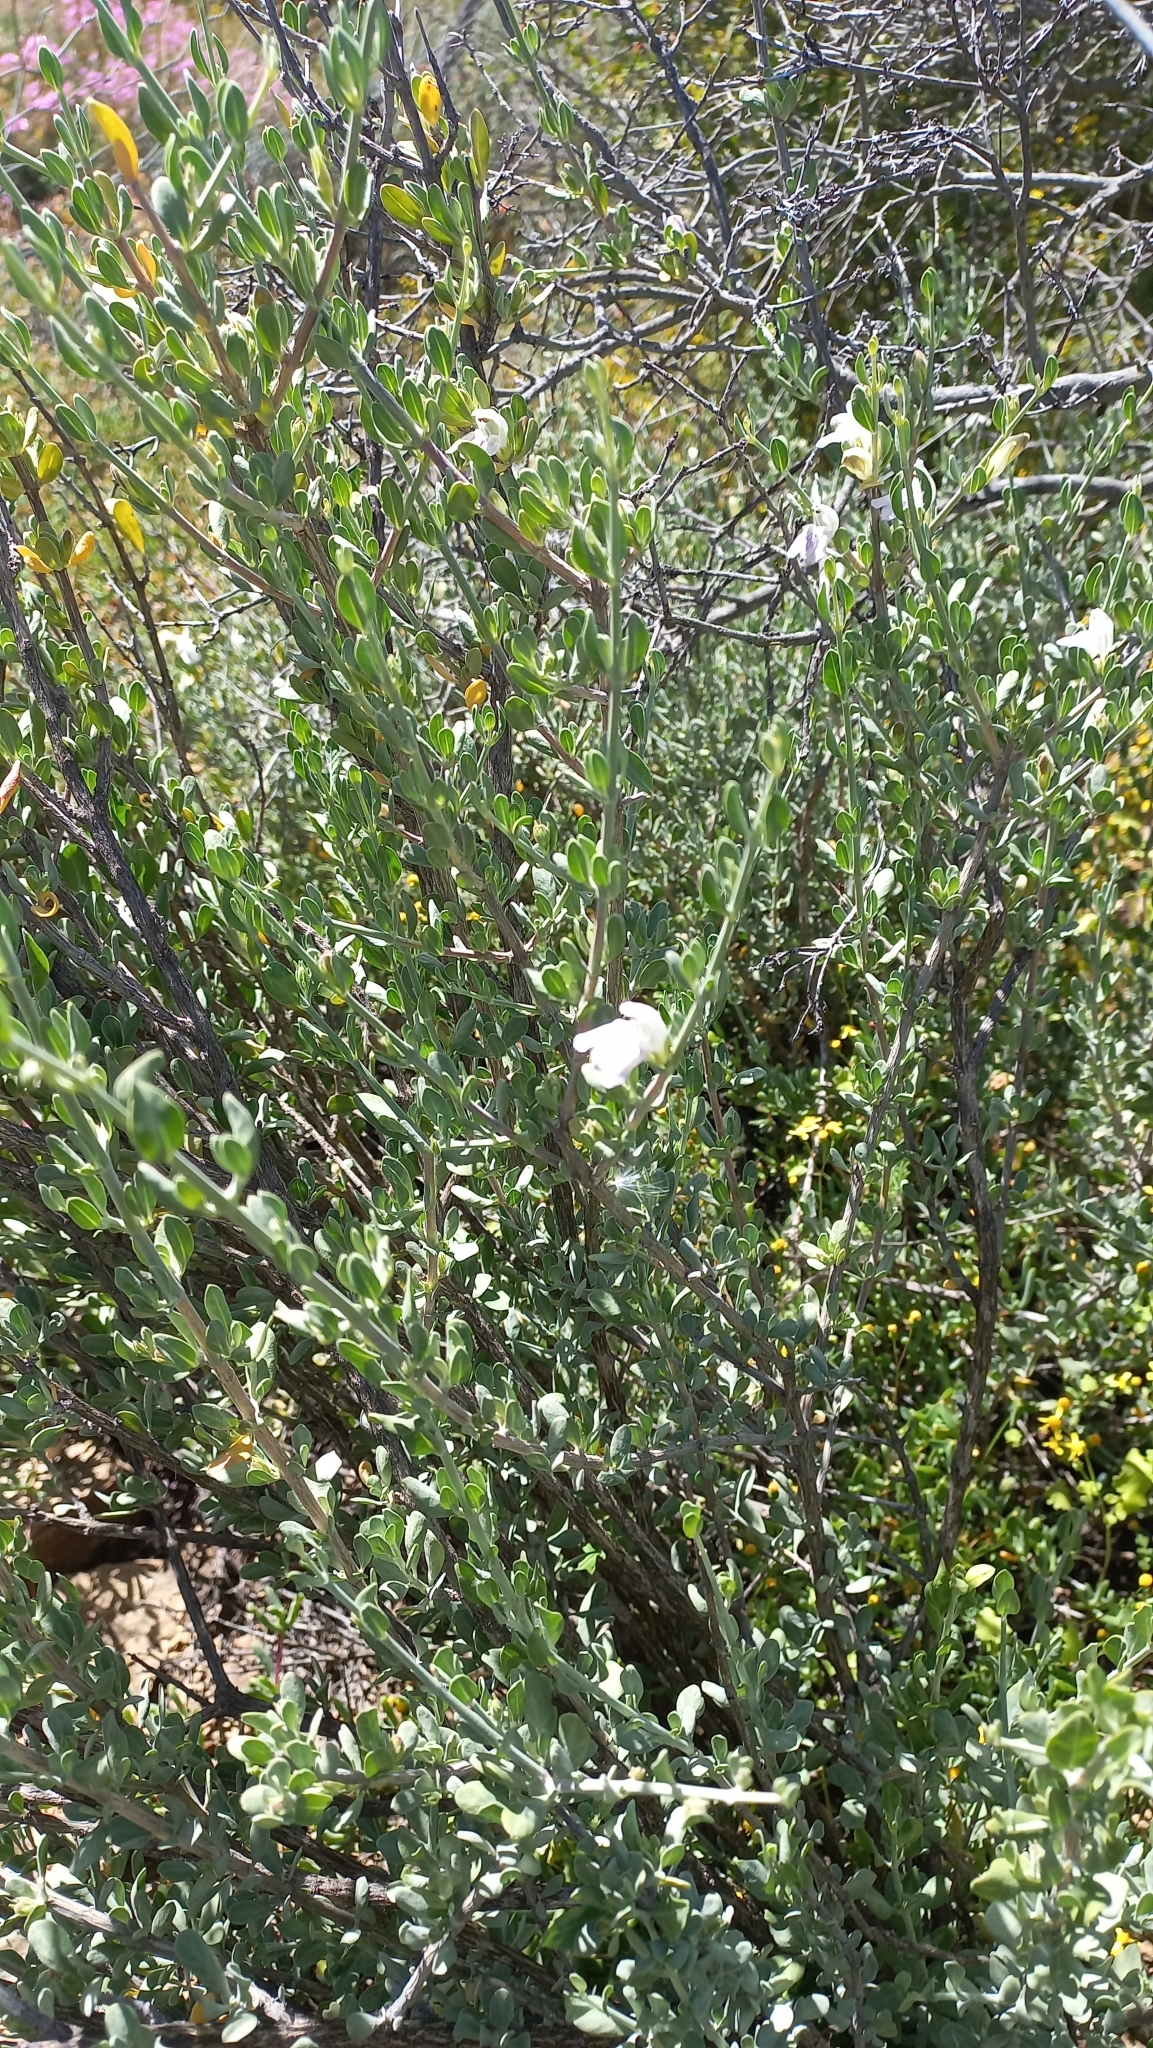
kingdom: Plantae
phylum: Tracheophyta
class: Magnoliopsida
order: Lamiales
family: Acanthaceae
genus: Pogonospermum
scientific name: Pogonospermum
